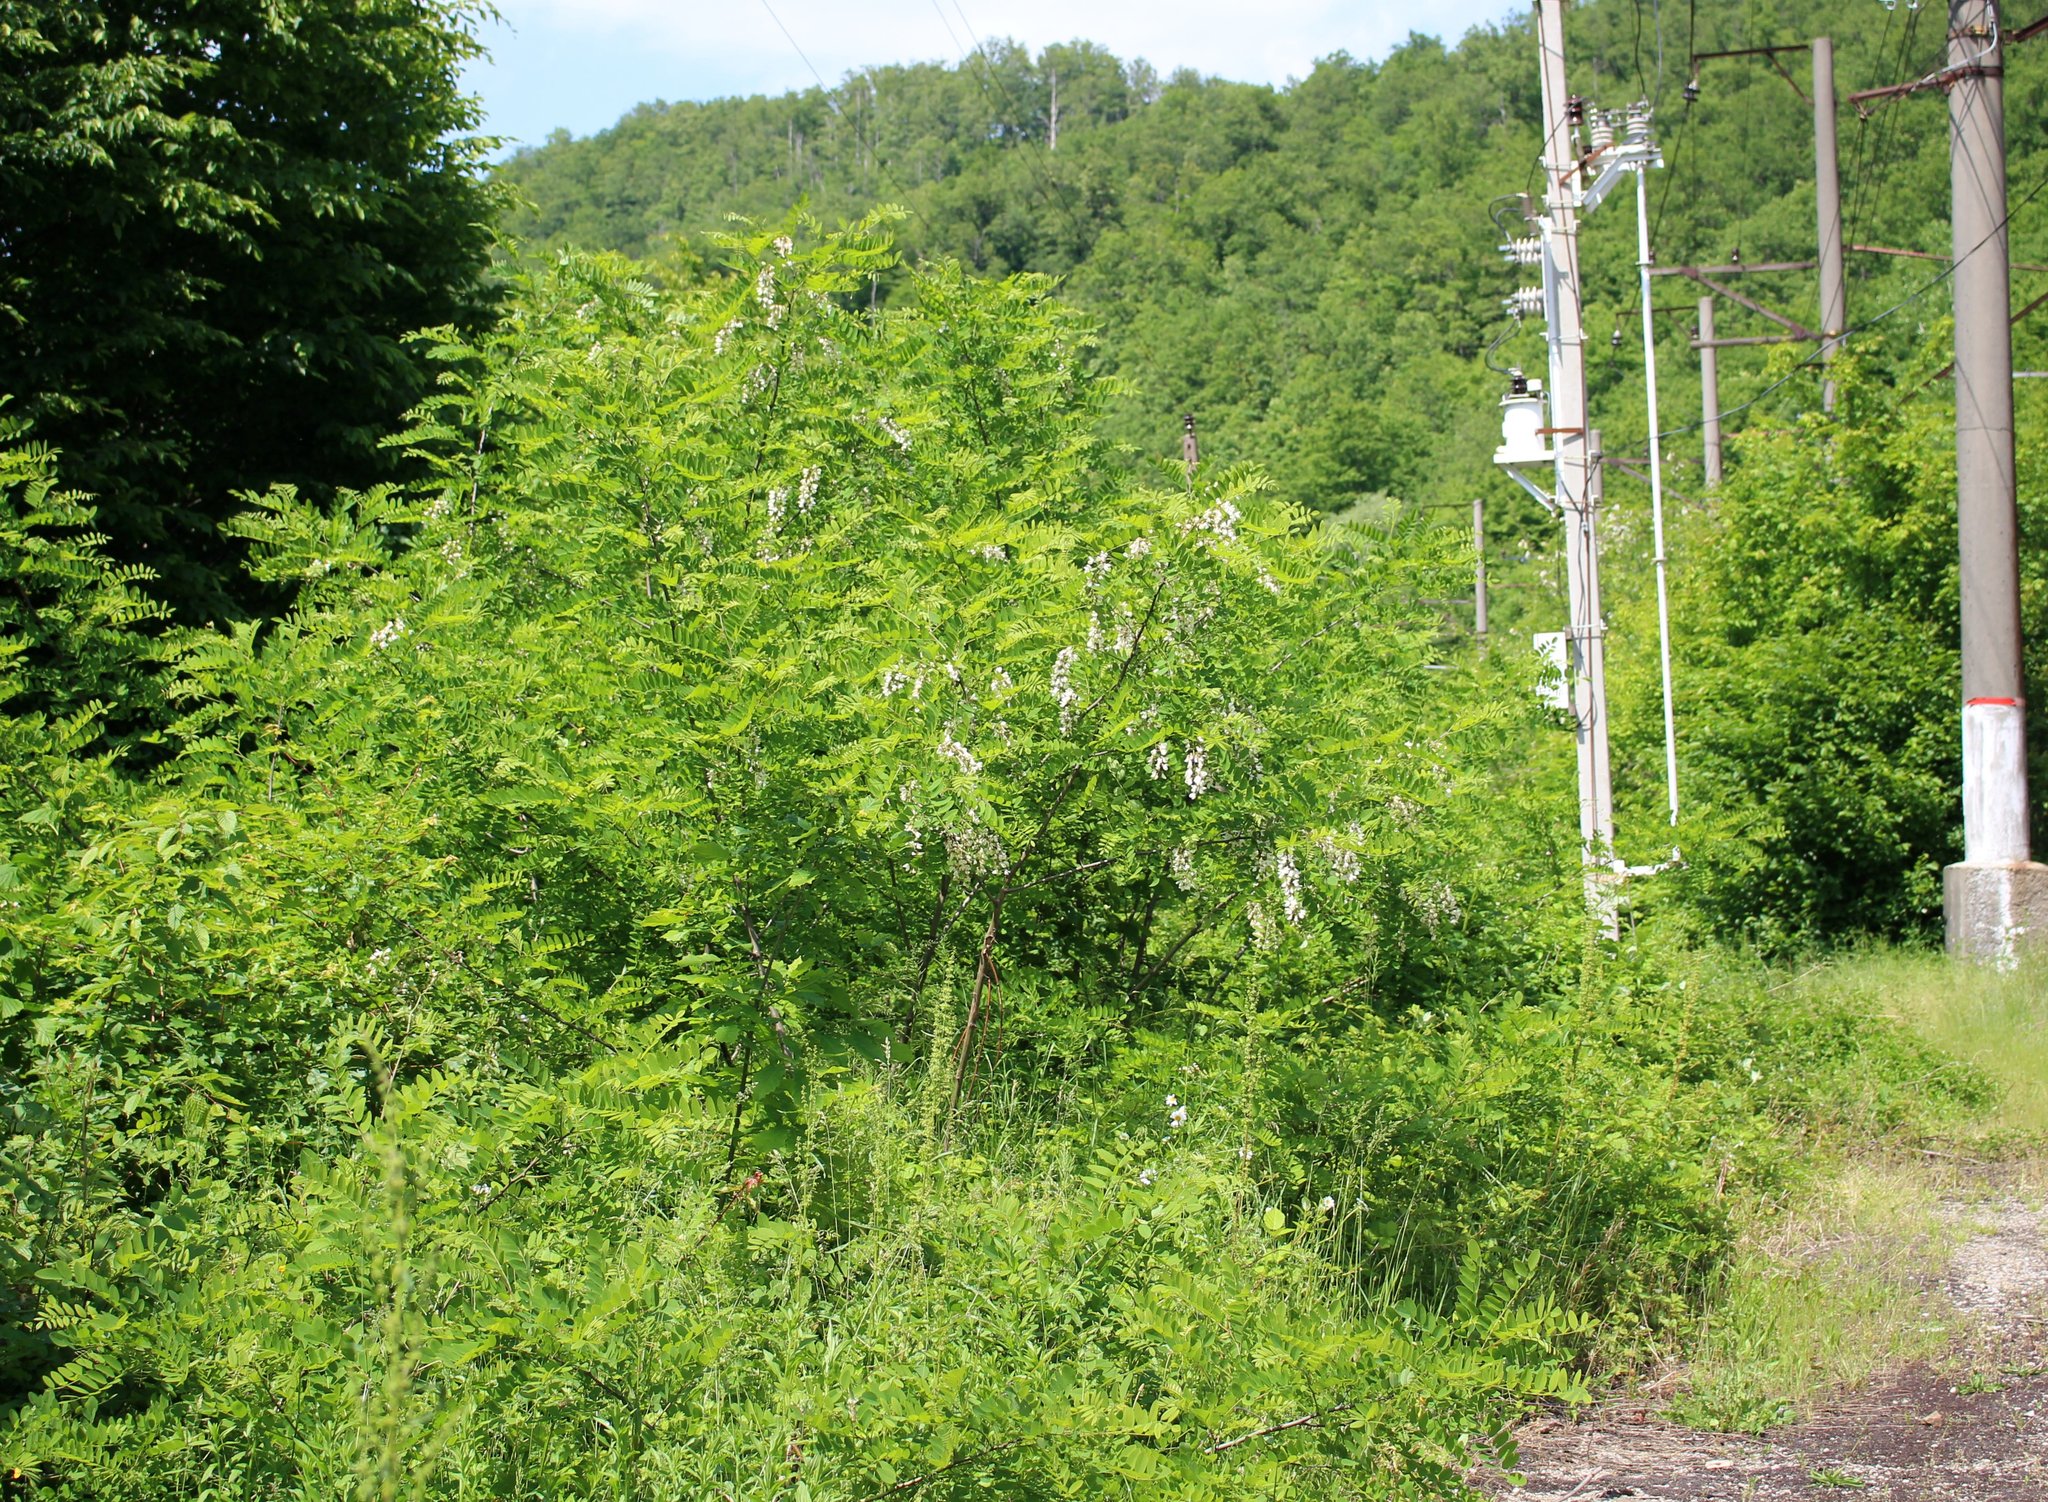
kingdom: Plantae
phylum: Tracheophyta
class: Magnoliopsida
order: Fabales
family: Fabaceae
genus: Robinia
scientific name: Robinia pseudoacacia
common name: Black locust
